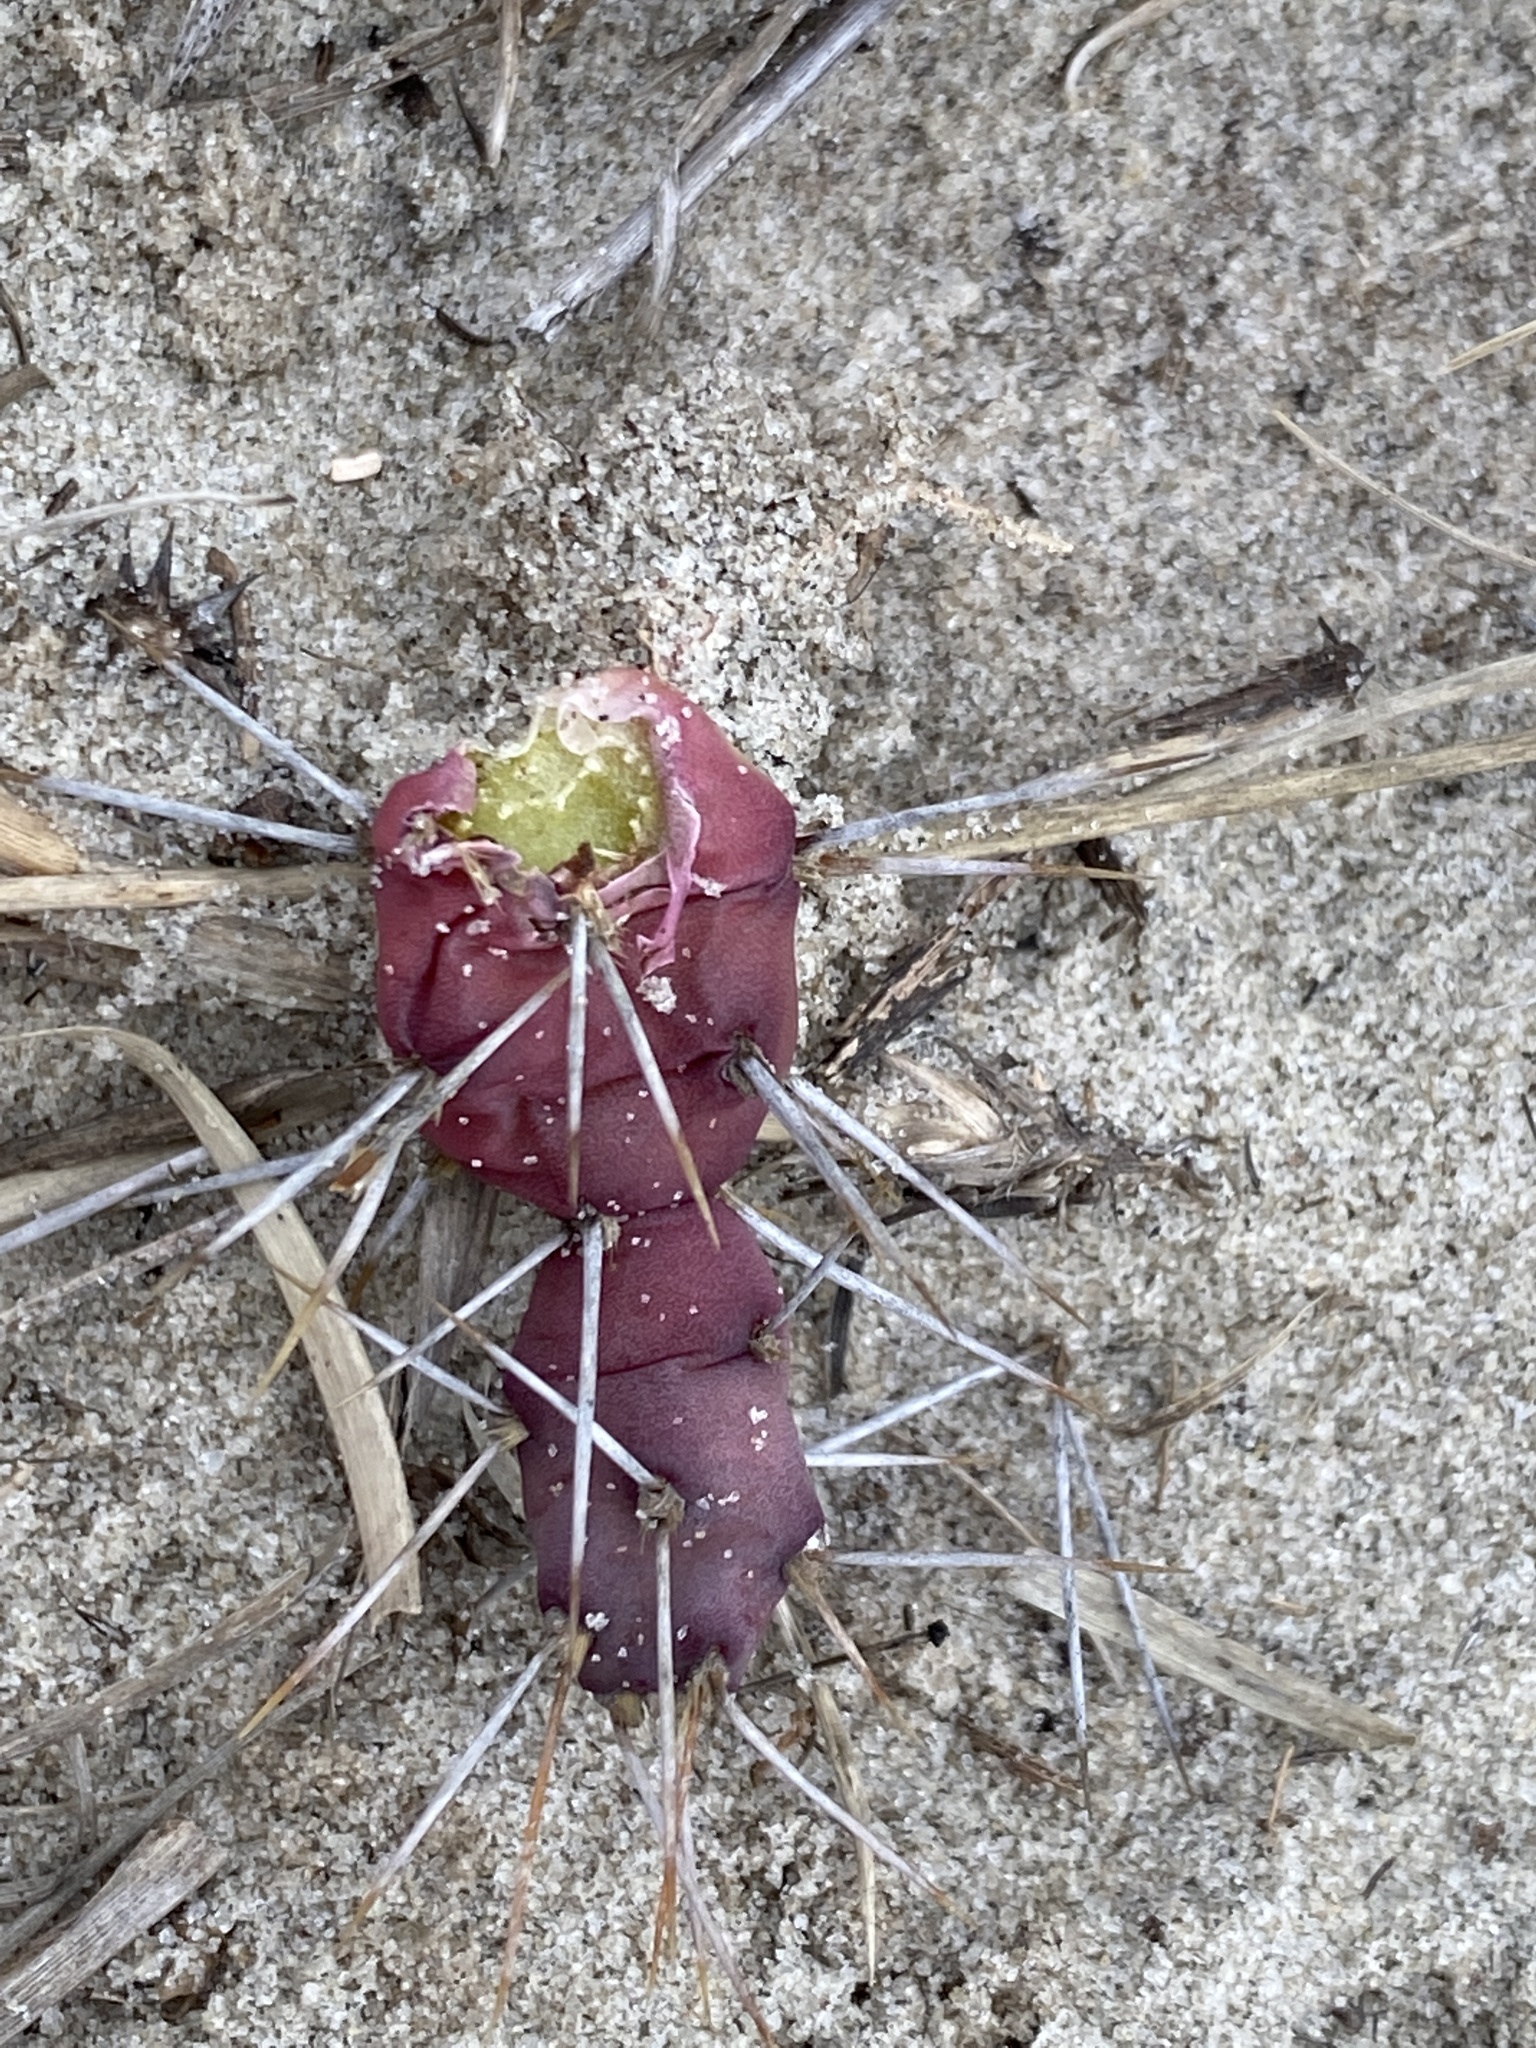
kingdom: Plantae
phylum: Tracheophyta
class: Magnoliopsida
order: Caryophyllales
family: Cactaceae
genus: Opuntia
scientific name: Opuntia drummondii
